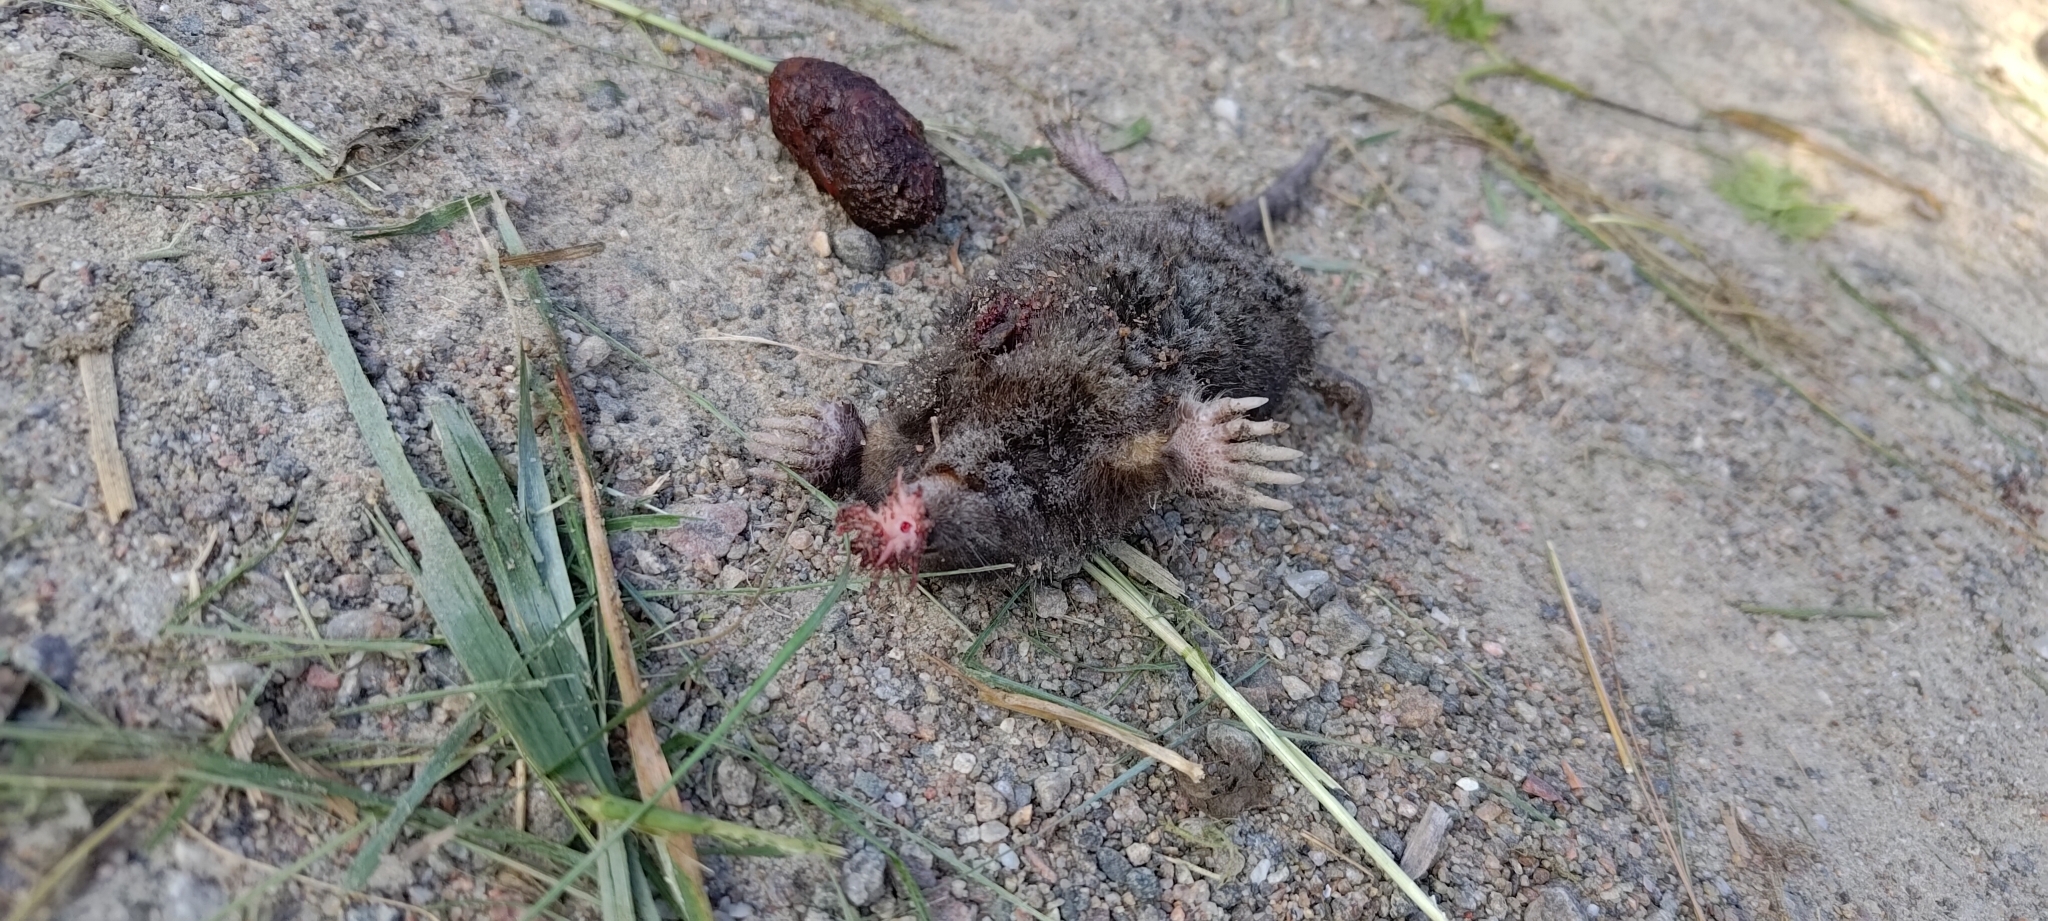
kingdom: Animalia
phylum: Chordata
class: Mammalia
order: Soricomorpha
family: Talpidae
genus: Condylura
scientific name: Condylura cristata
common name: Star-nosed mole
